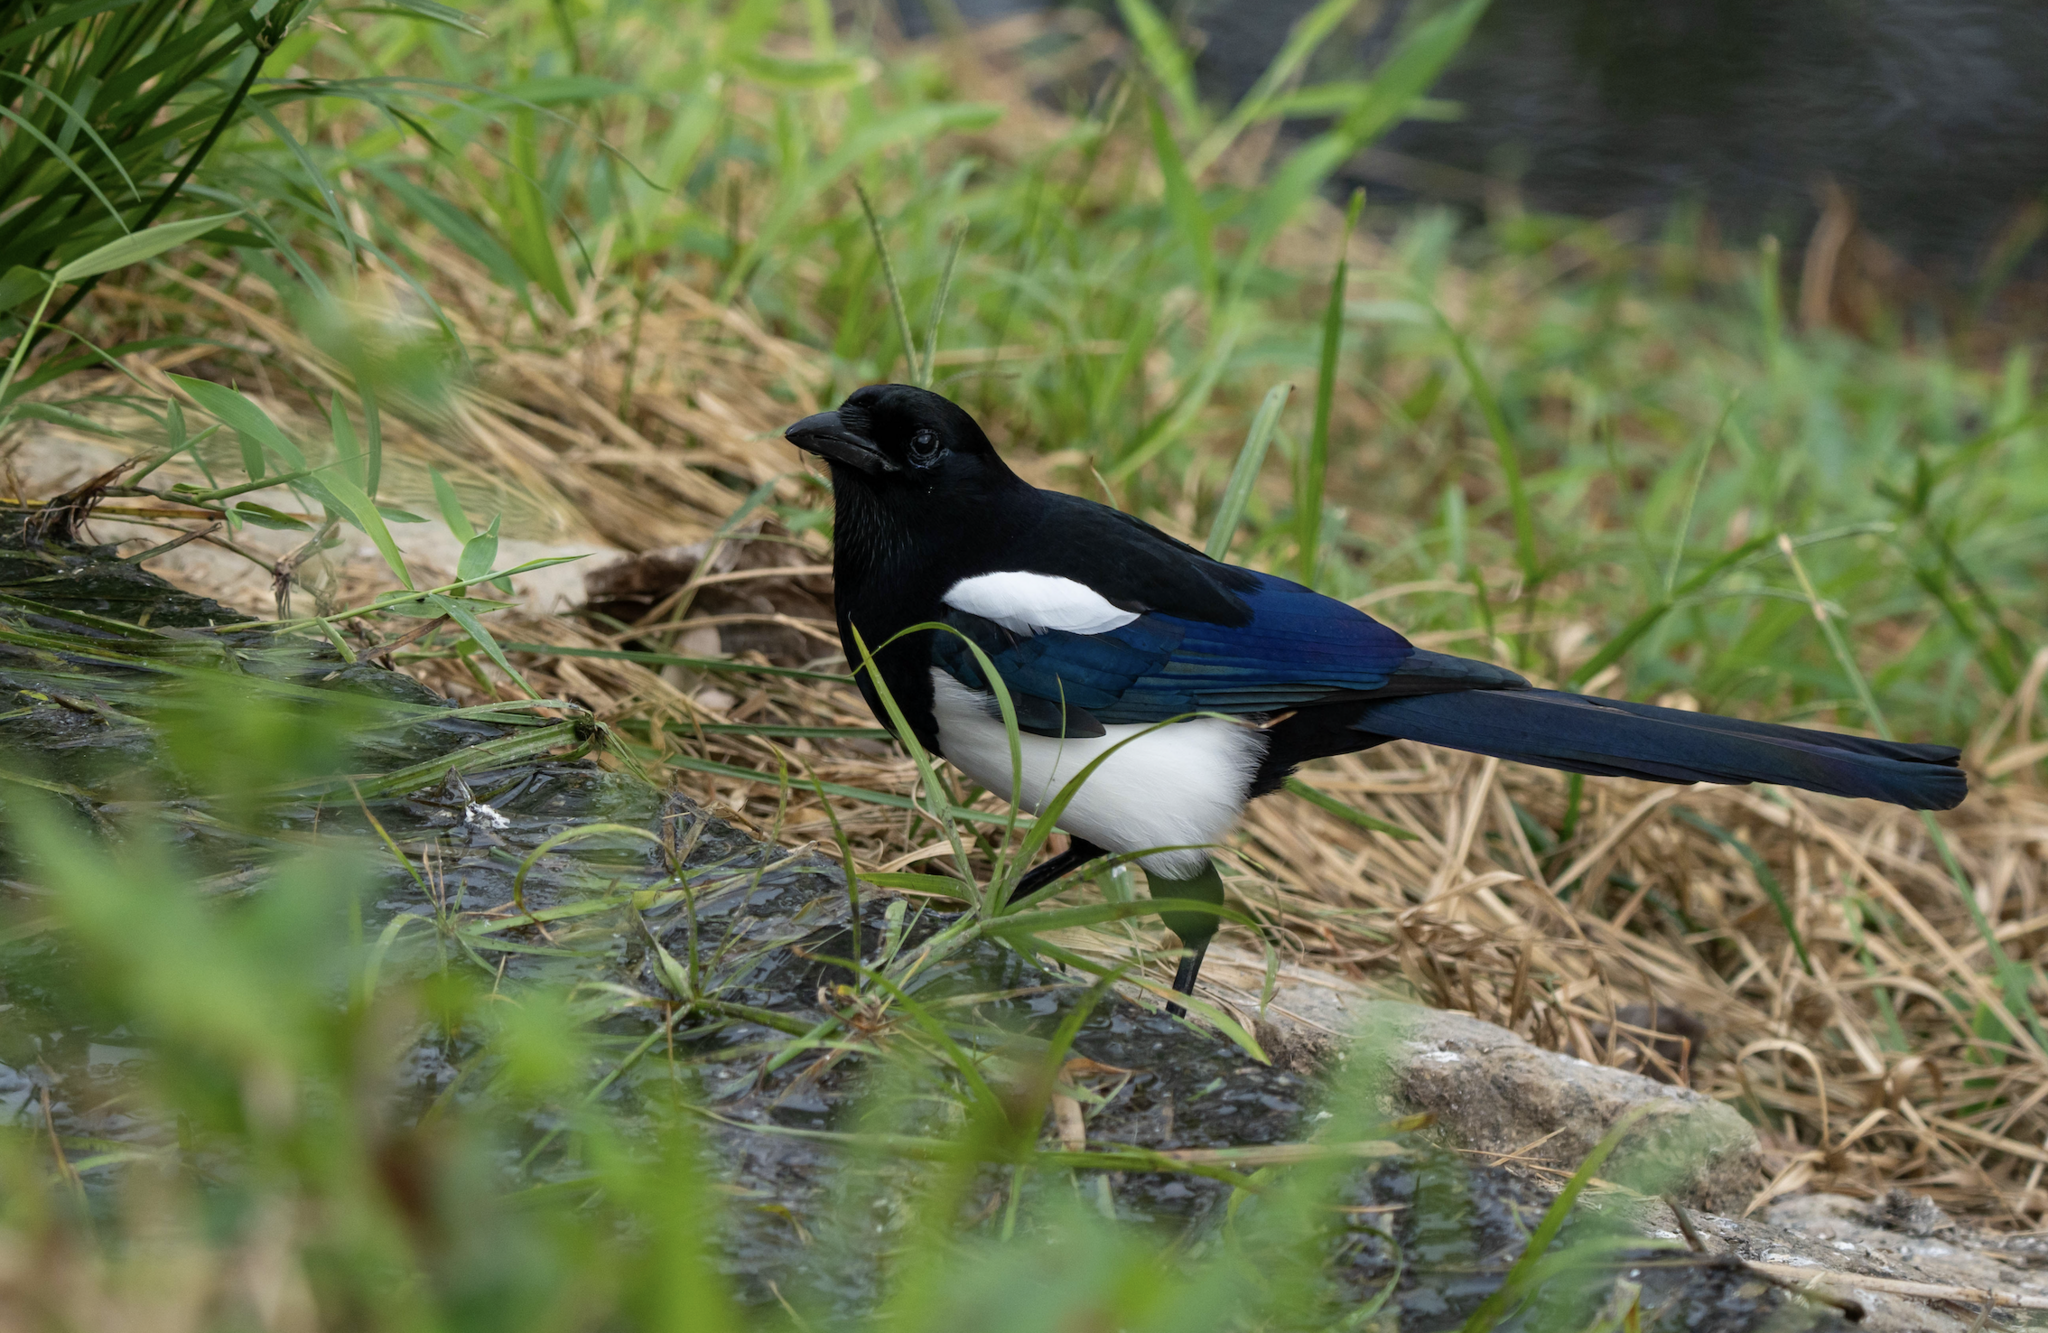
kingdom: Animalia
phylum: Chordata
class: Aves
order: Passeriformes
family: Corvidae
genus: Pica
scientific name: Pica serica
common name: Oriental magpie
